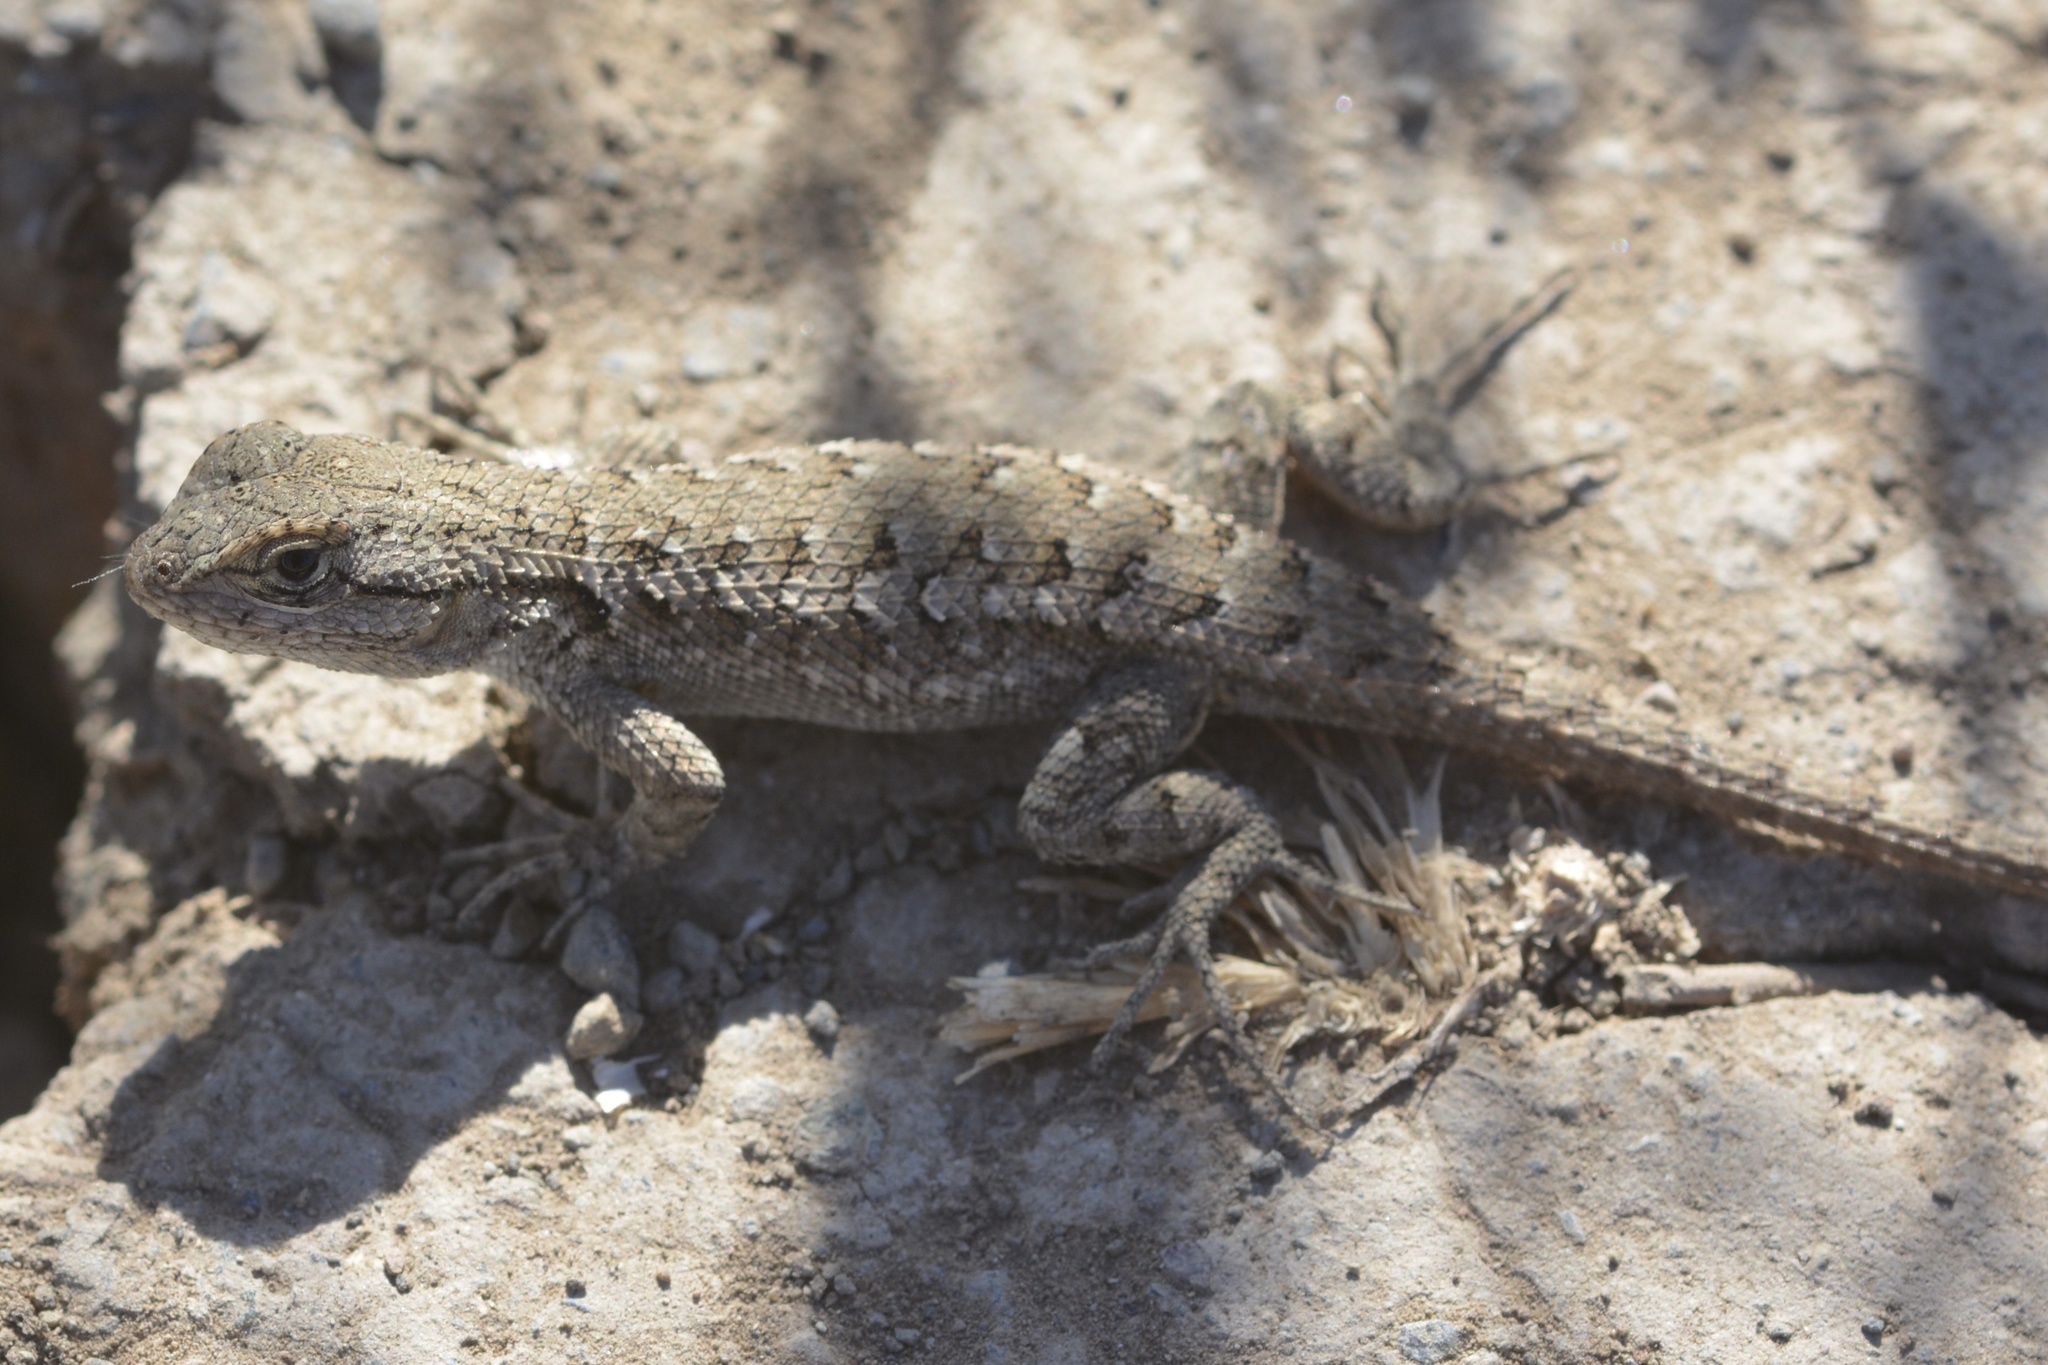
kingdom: Animalia
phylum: Chordata
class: Squamata
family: Phrynosomatidae
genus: Sceloporus
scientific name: Sceloporus occidentalis
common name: Western fence lizard
